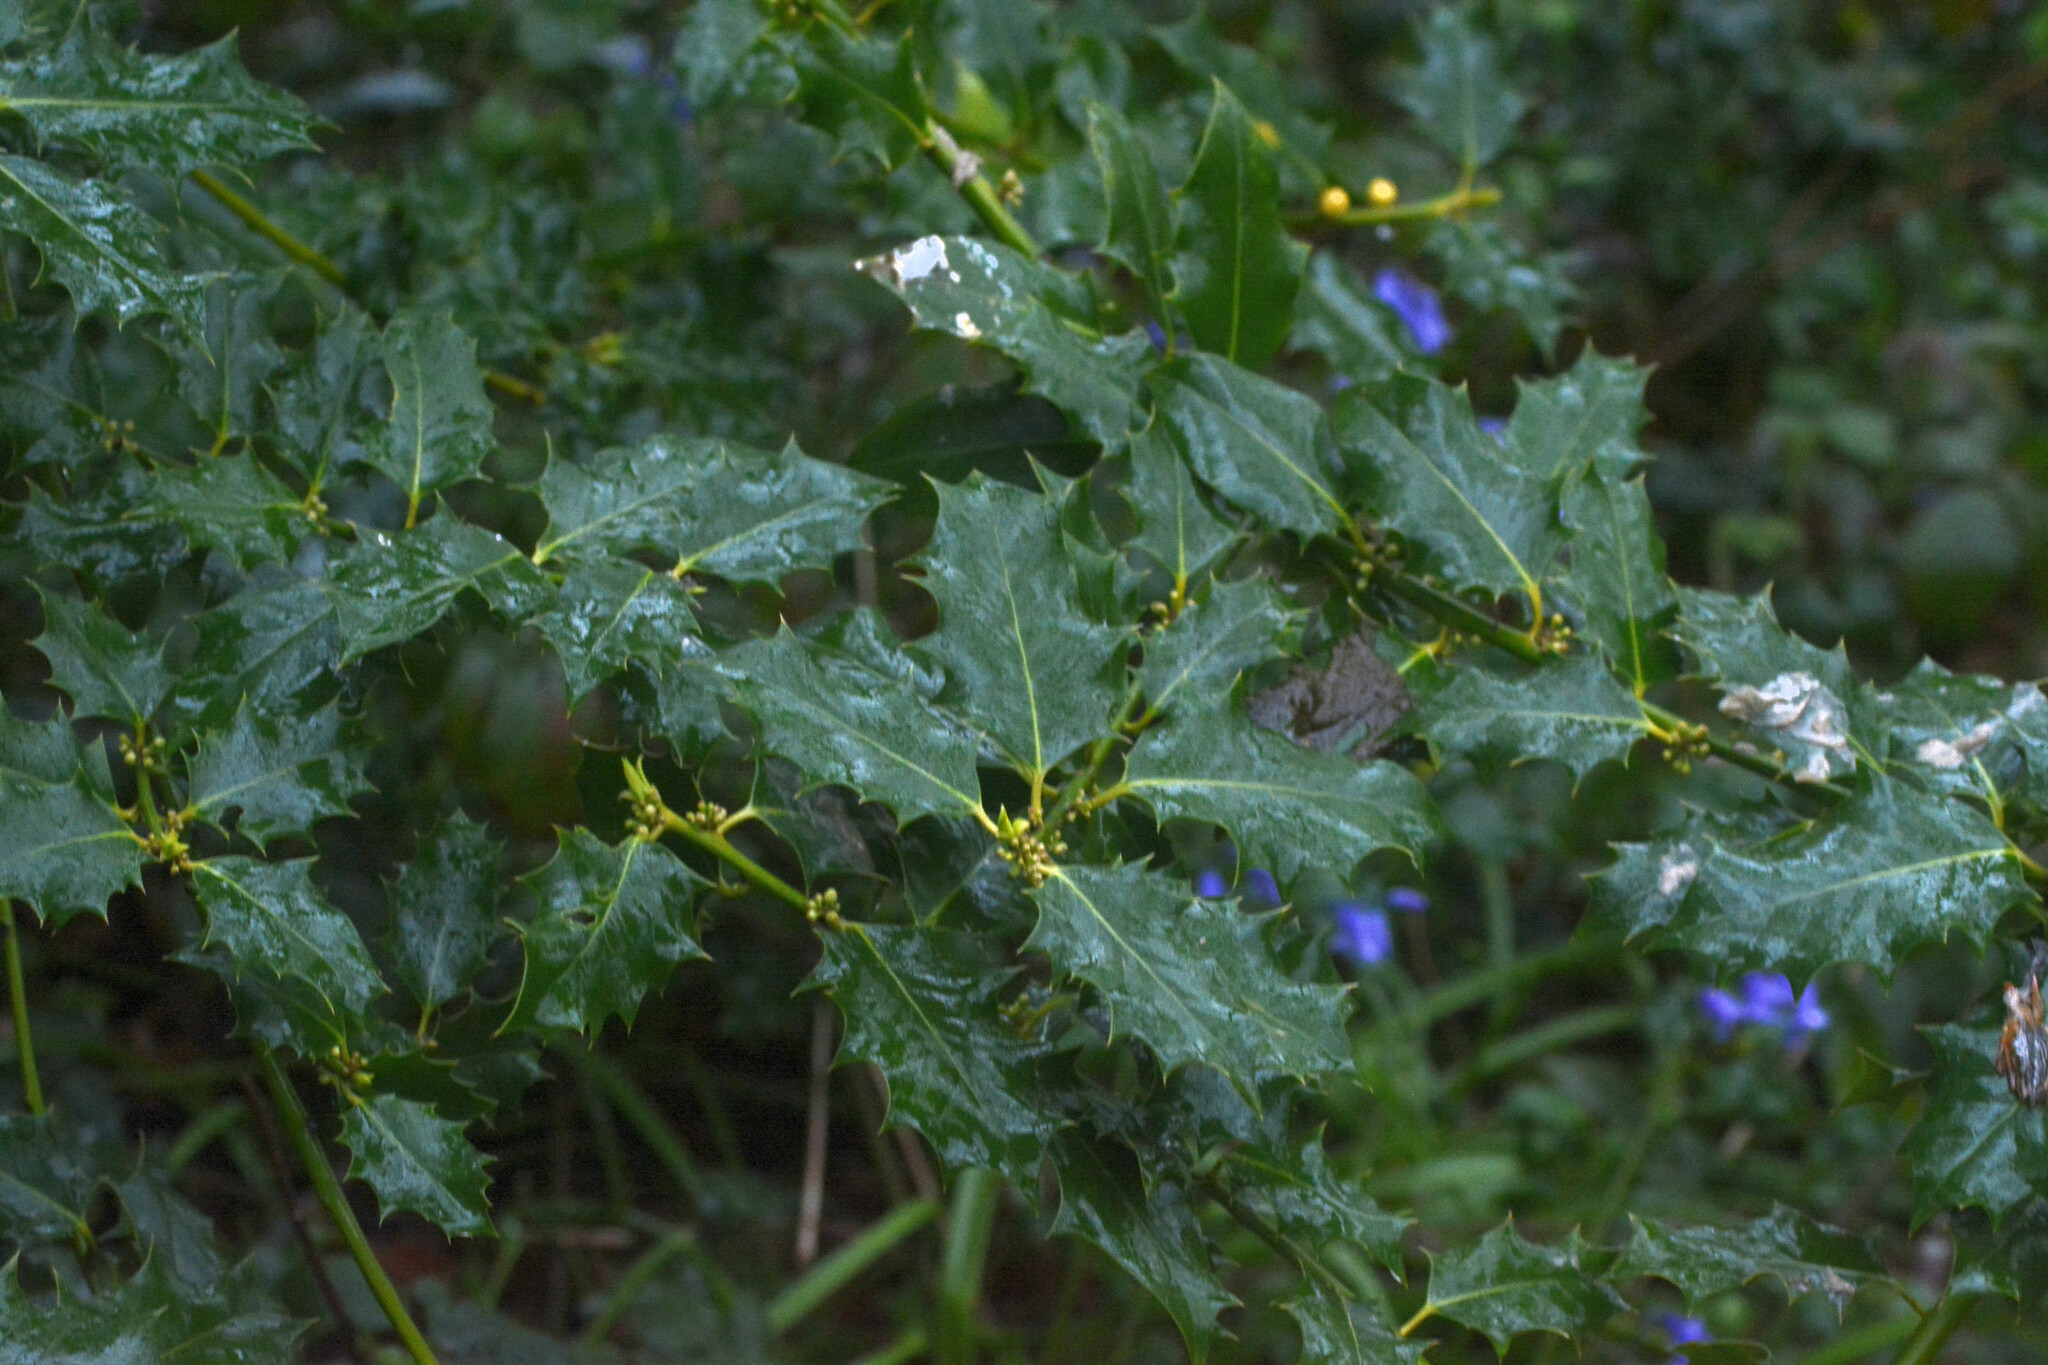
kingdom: Plantae
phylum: Tracheophyta
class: Magnoliopsida
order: Aquifoliales
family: Aquifoliaceae
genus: Ilex
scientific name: Ilex aquifolium
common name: English holly
